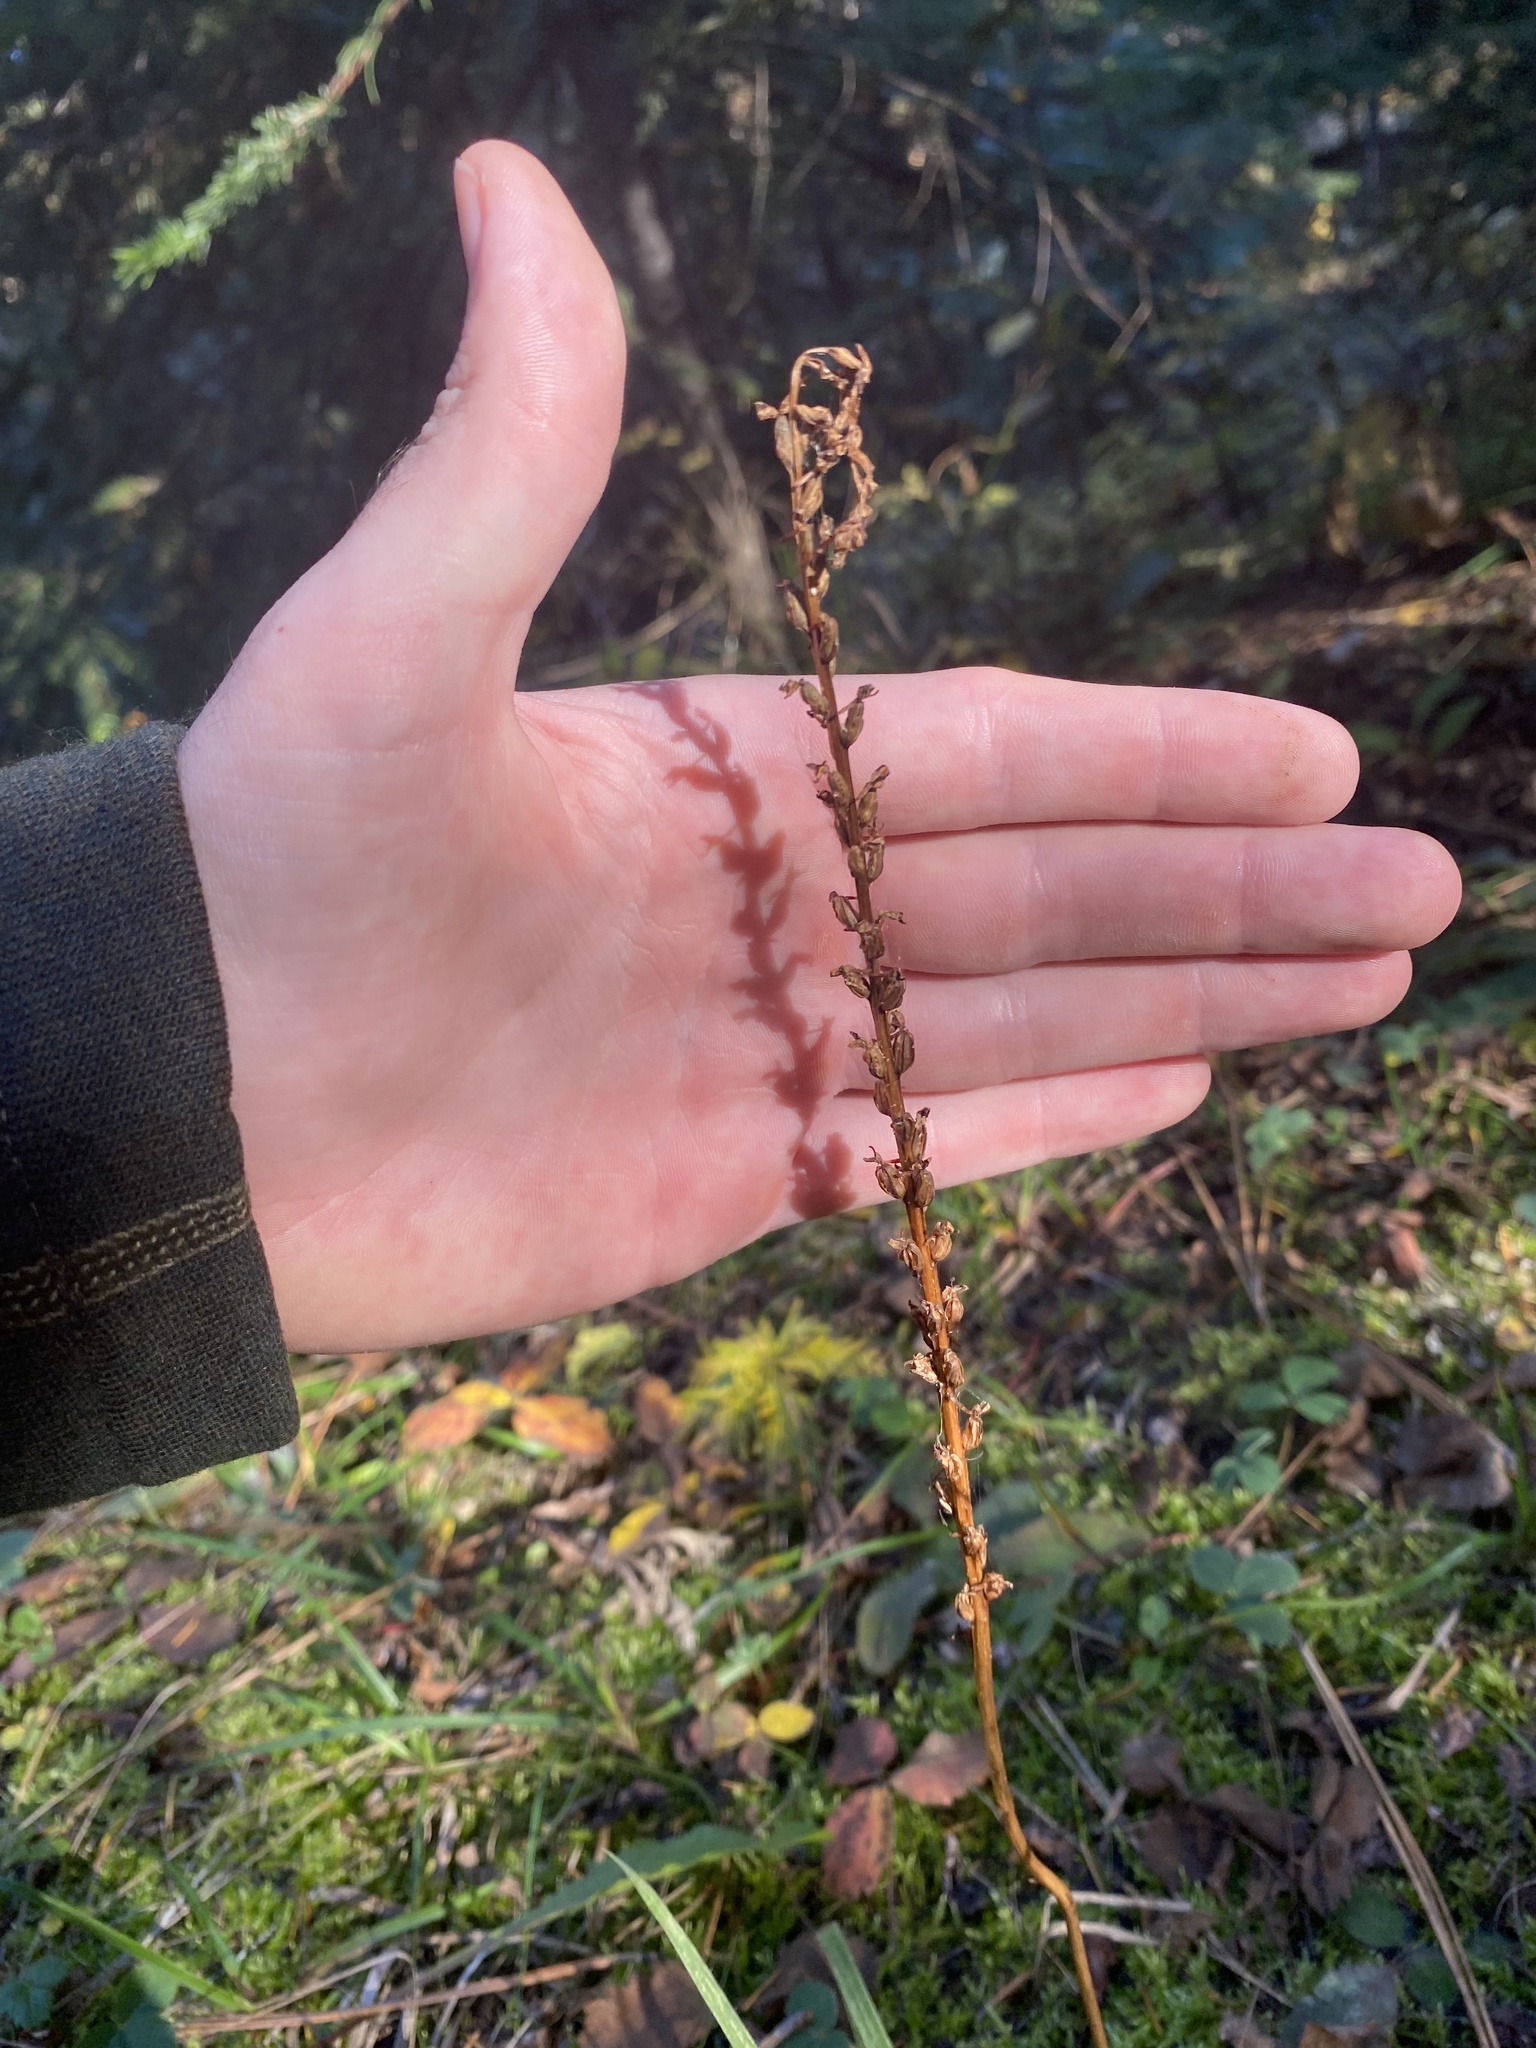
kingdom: Plantae
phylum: Tracheophyta
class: Liliopsida
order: Asparagales
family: Orchidaceae
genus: Platanthera
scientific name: Platanthera unalascensis
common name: Alaska bog orchid
